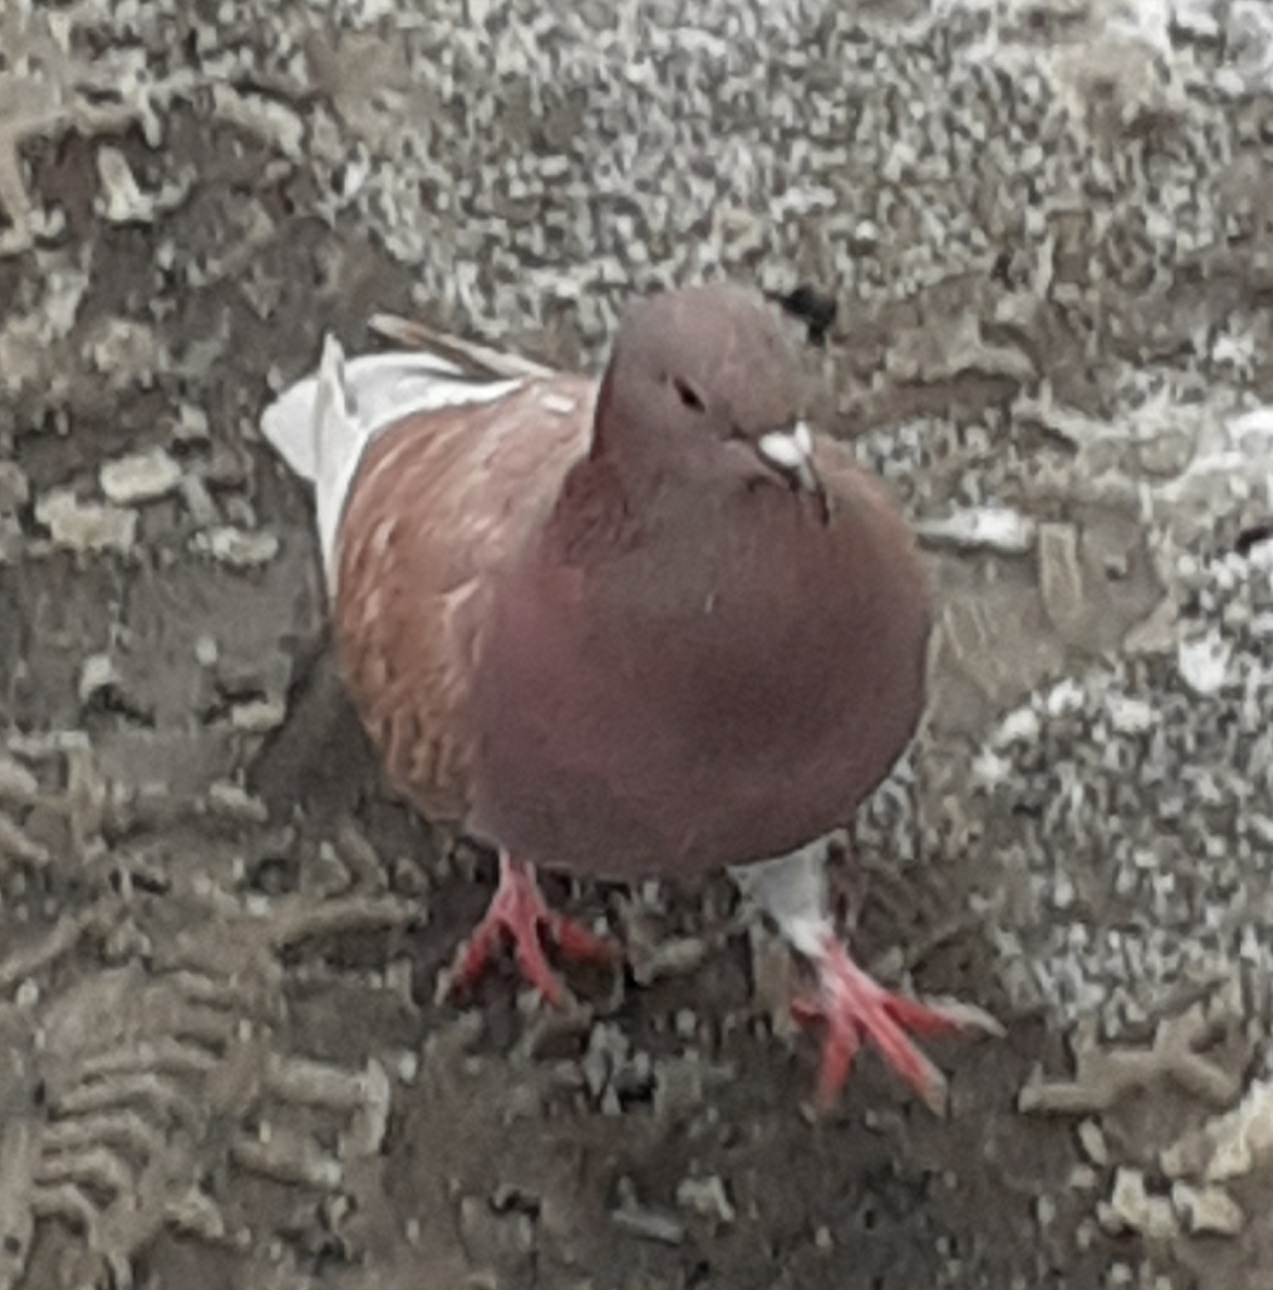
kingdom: Animalia
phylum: Chordata
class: Aves
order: Columbiformes
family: Columbidae
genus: Columba
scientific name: Columba livia
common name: Rock pigeon
